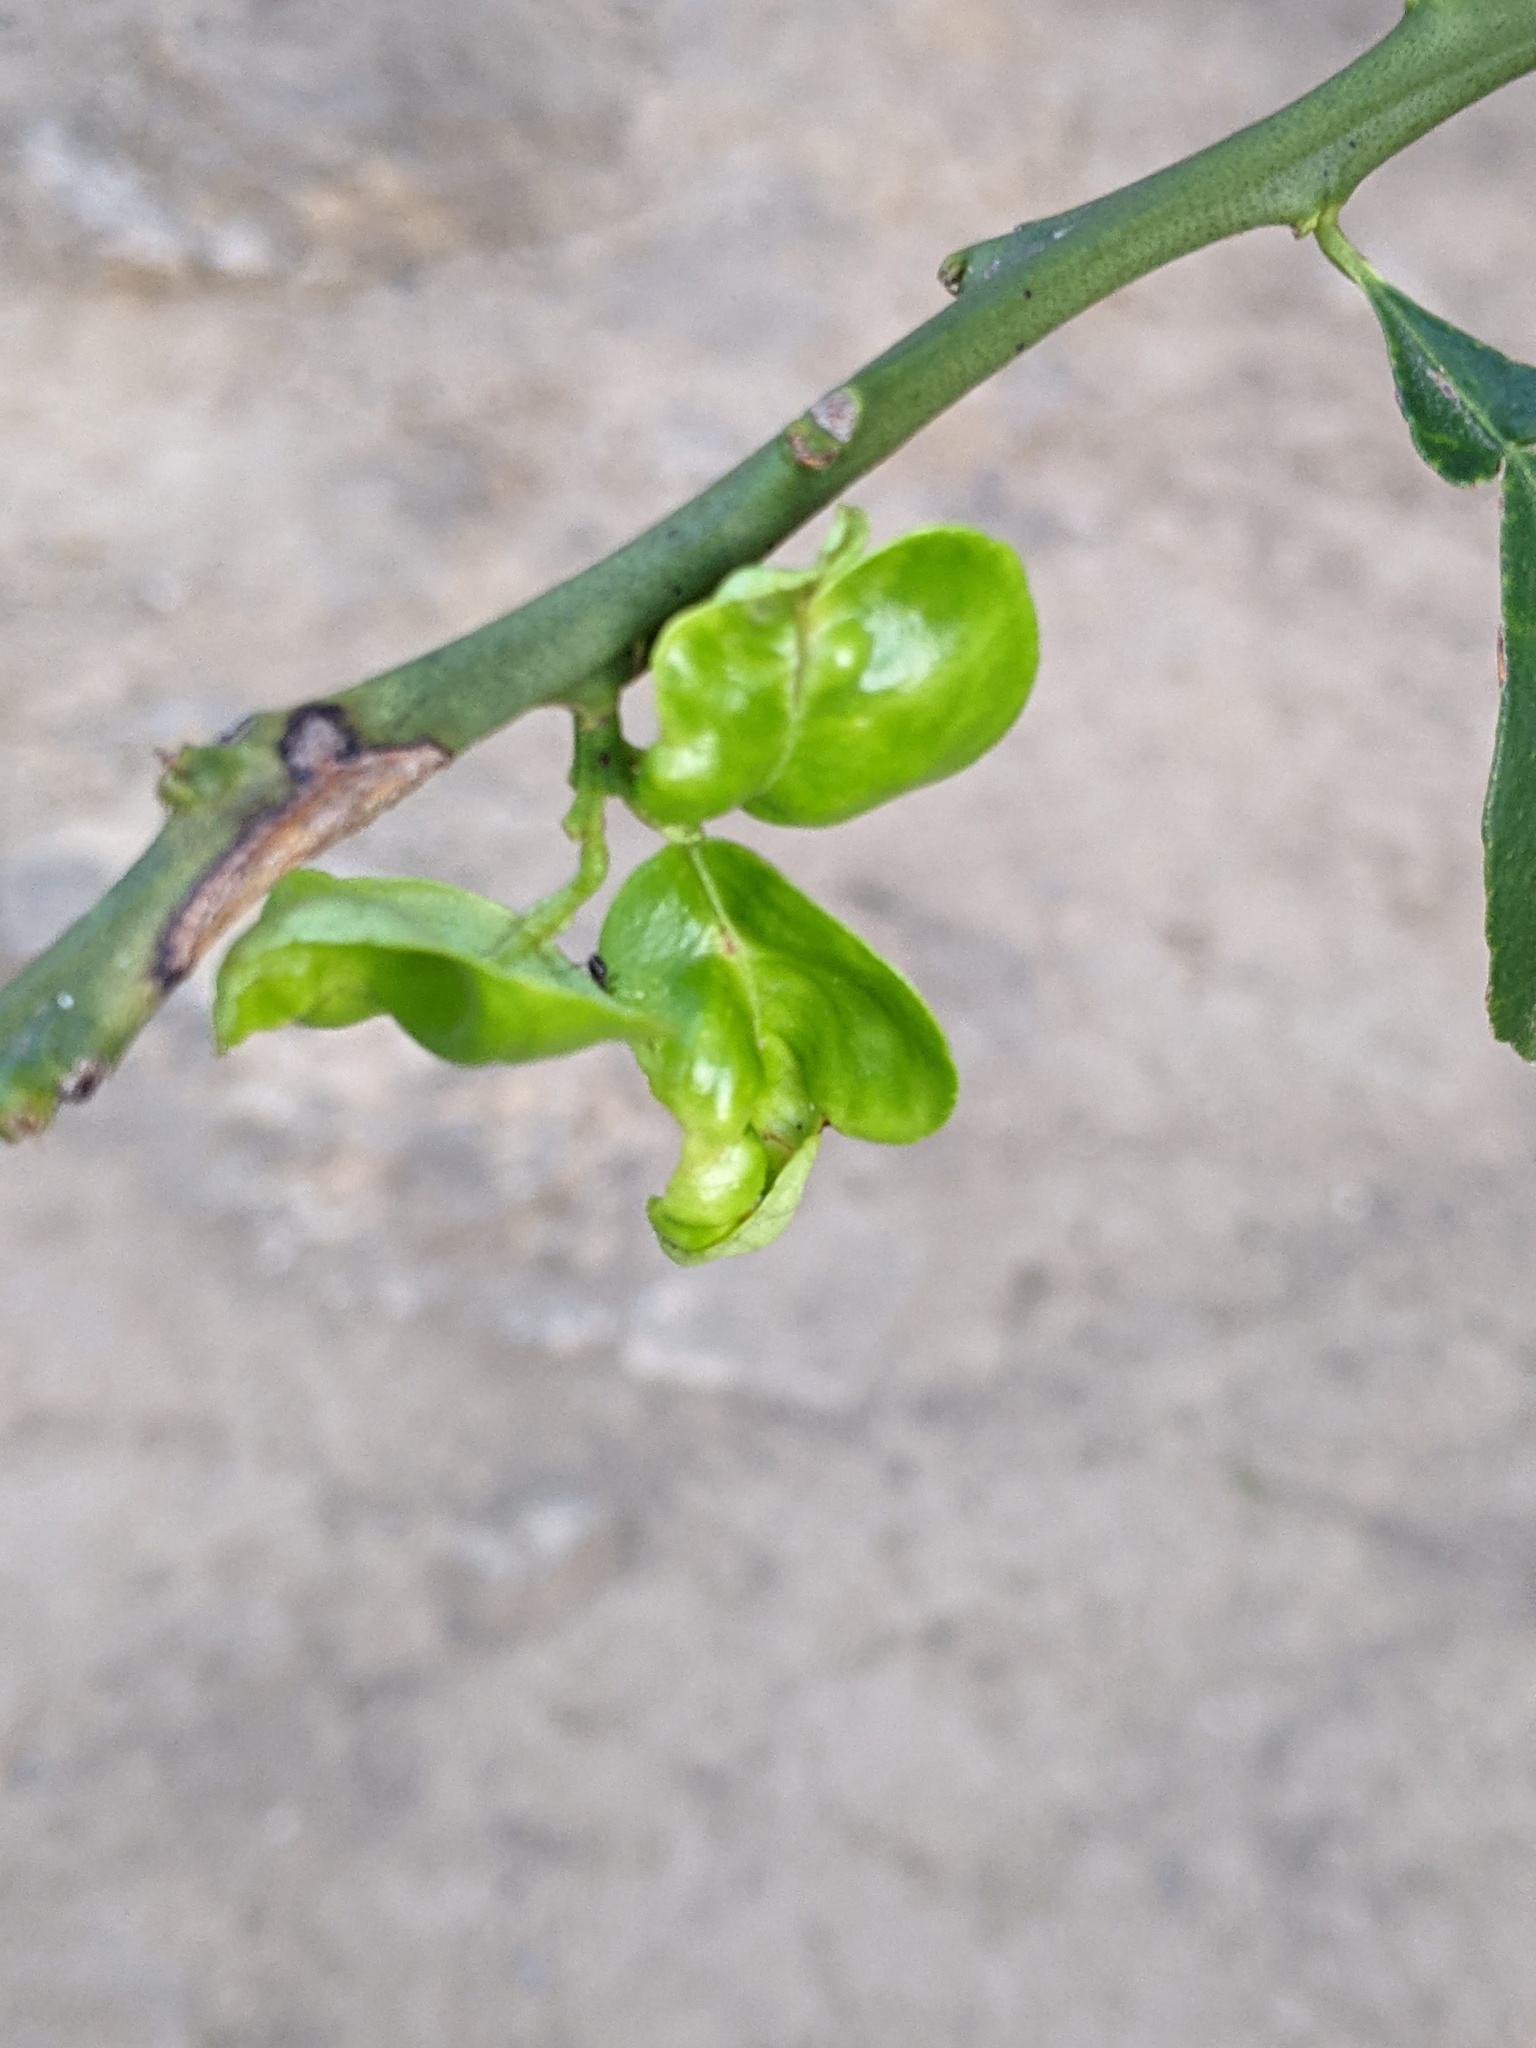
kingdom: Animalia
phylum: Arthropoda
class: Arachnida
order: Trombidiformes
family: Eriophyidae
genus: Aceria
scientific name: Aceria sheldoni
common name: Citrus bud mite
